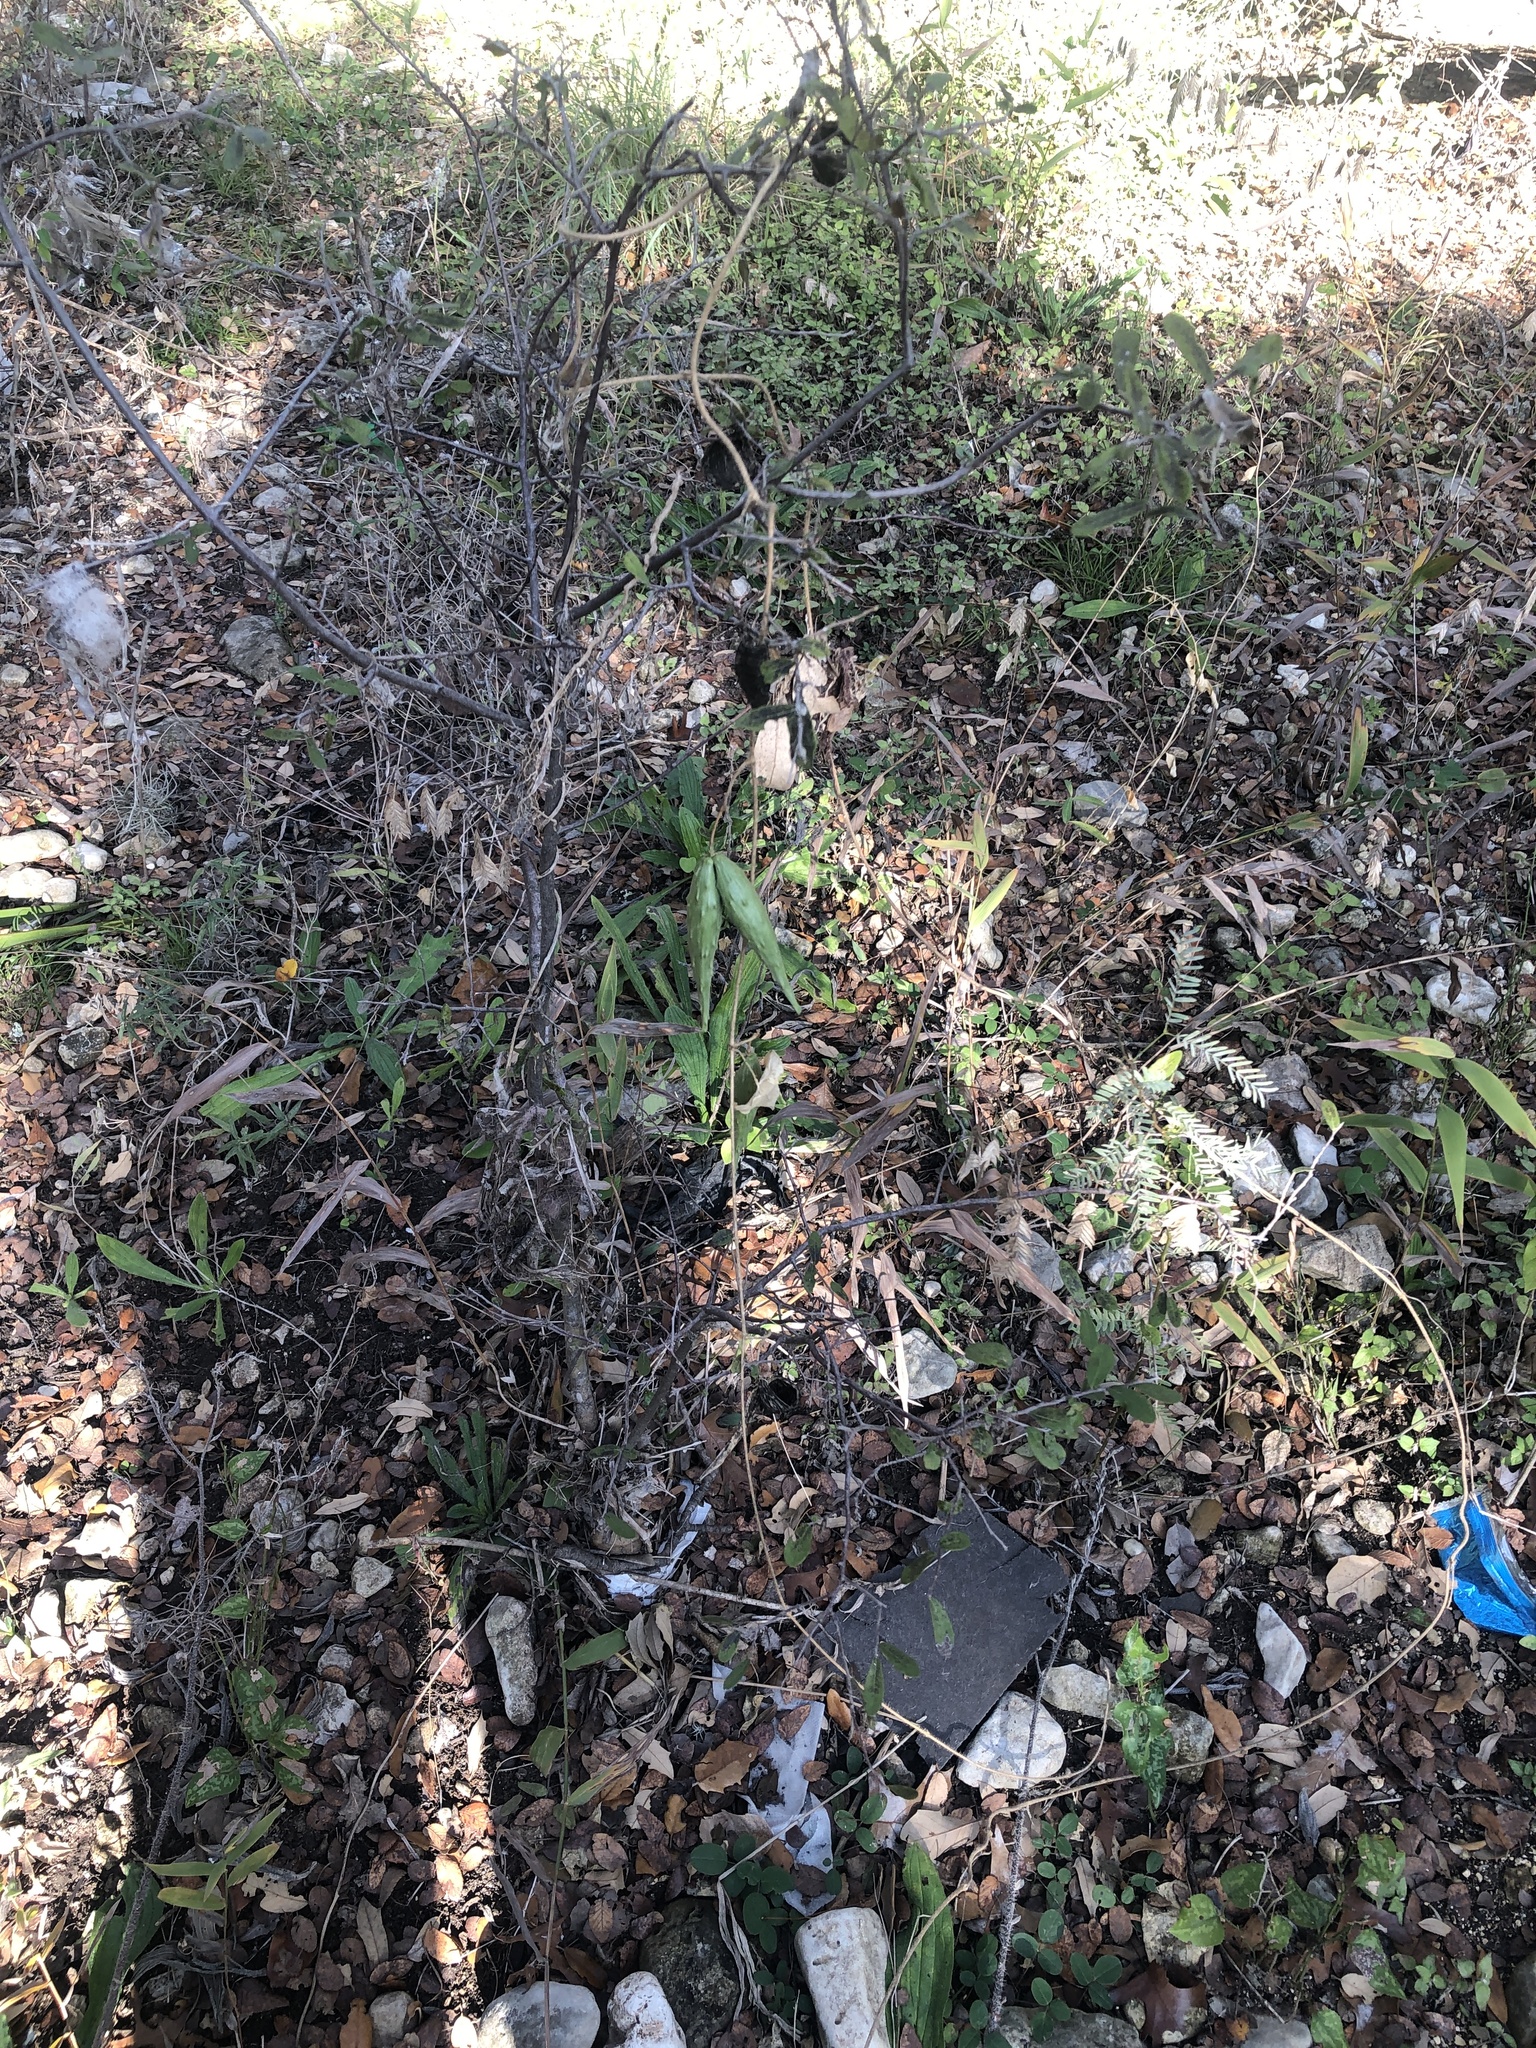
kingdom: Plantae
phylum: Tracheophyta
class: Magnoliopsida
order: Gentianales
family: Apocynaceae
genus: Dictyanthus
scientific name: Dictyanthus reticulatus
